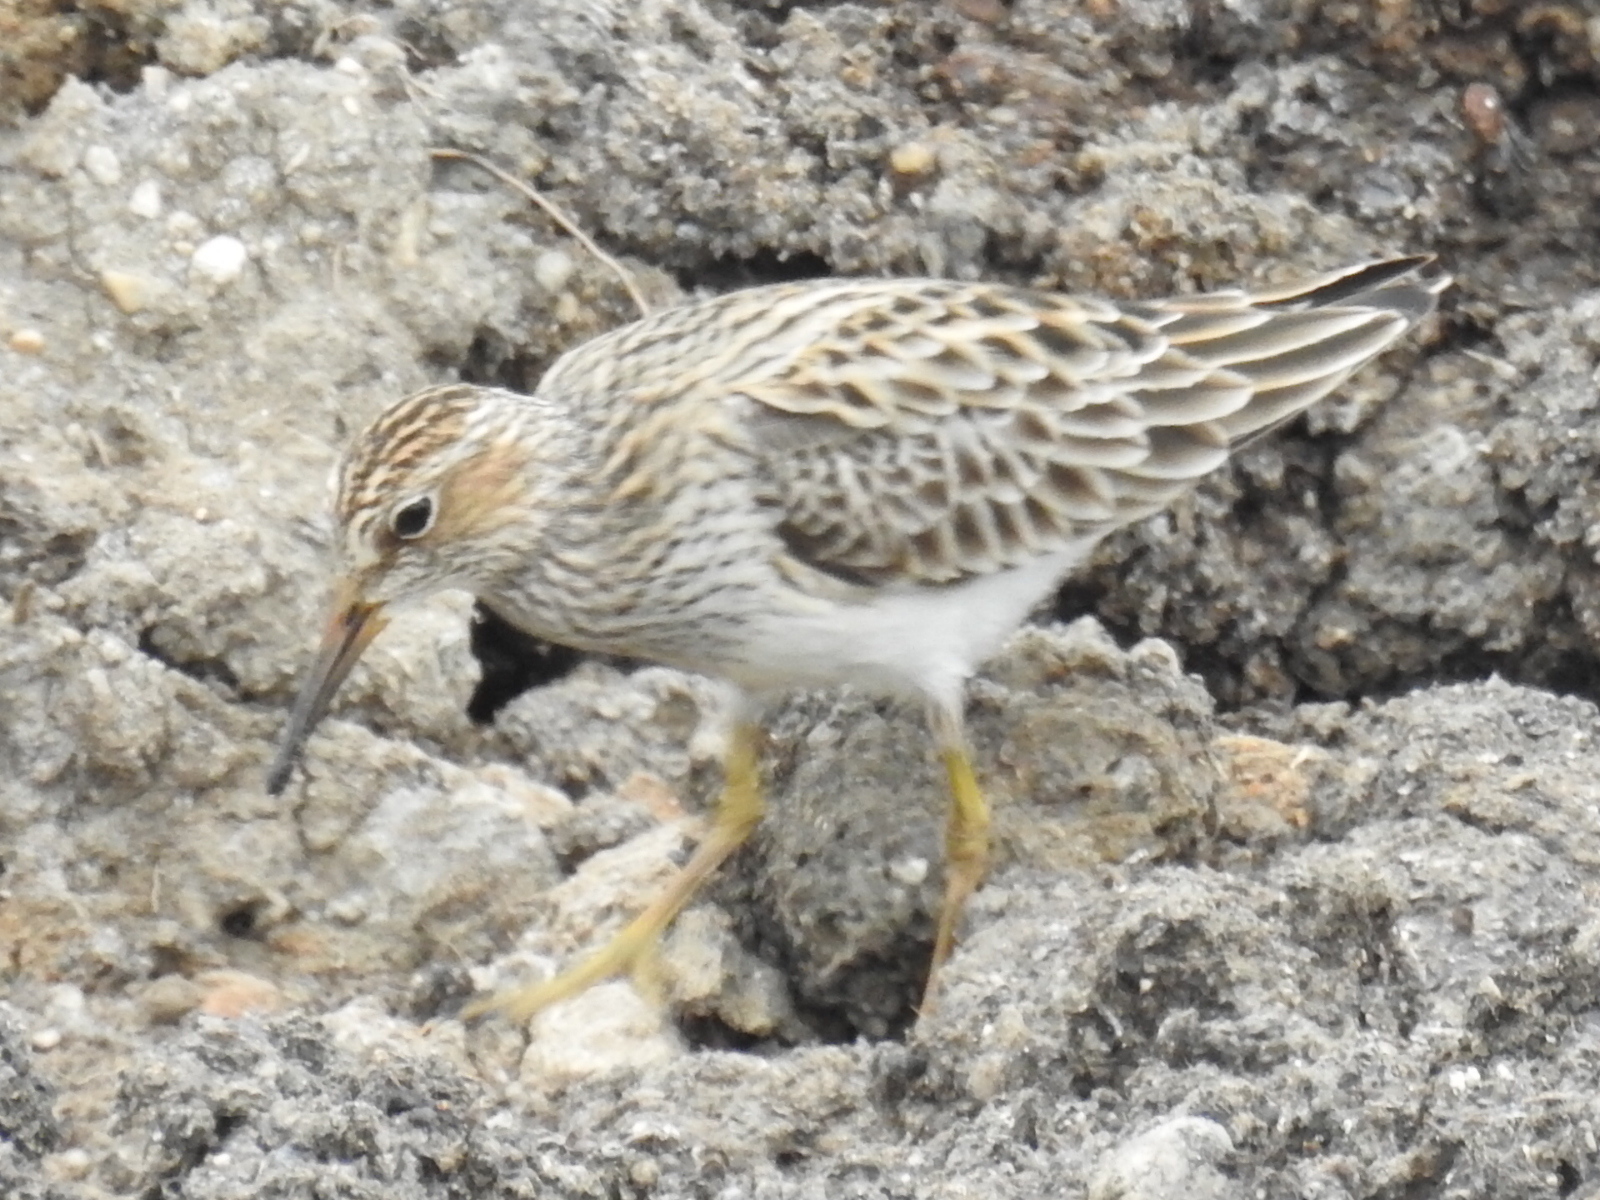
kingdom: Animalia
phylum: Chordata
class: Aves
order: Charadriiformes
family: Scolopacidae
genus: Calidris
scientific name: Calidris melanotos
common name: Pectoral sandpiper
